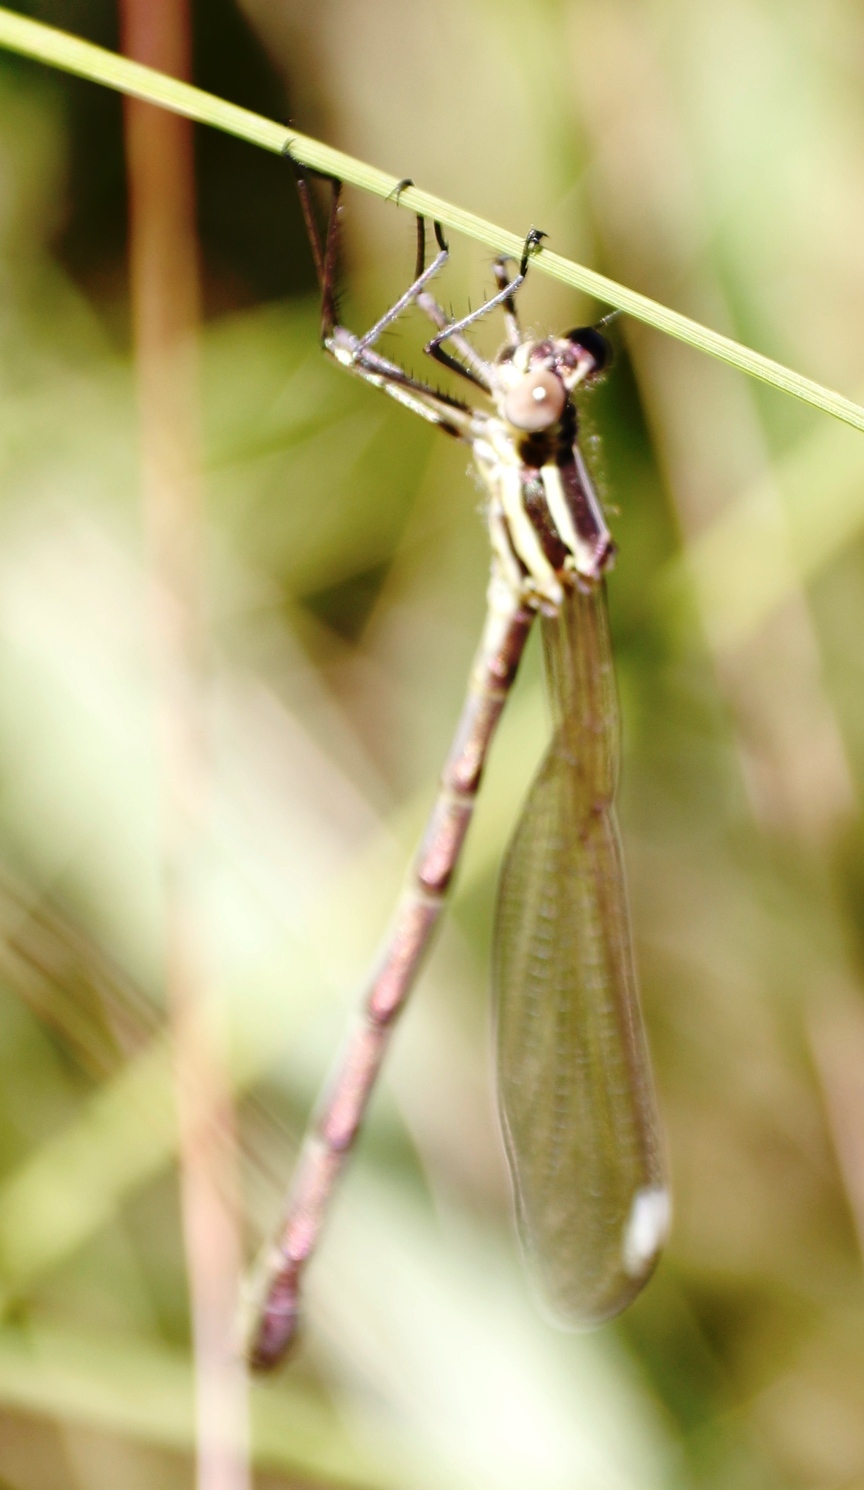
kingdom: Animalia
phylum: Arthropoda
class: Insecta
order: Odonata
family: Synlestidae
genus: Chlorolestes
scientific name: Chlorolestes fasciatus
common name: Mountain malachite
